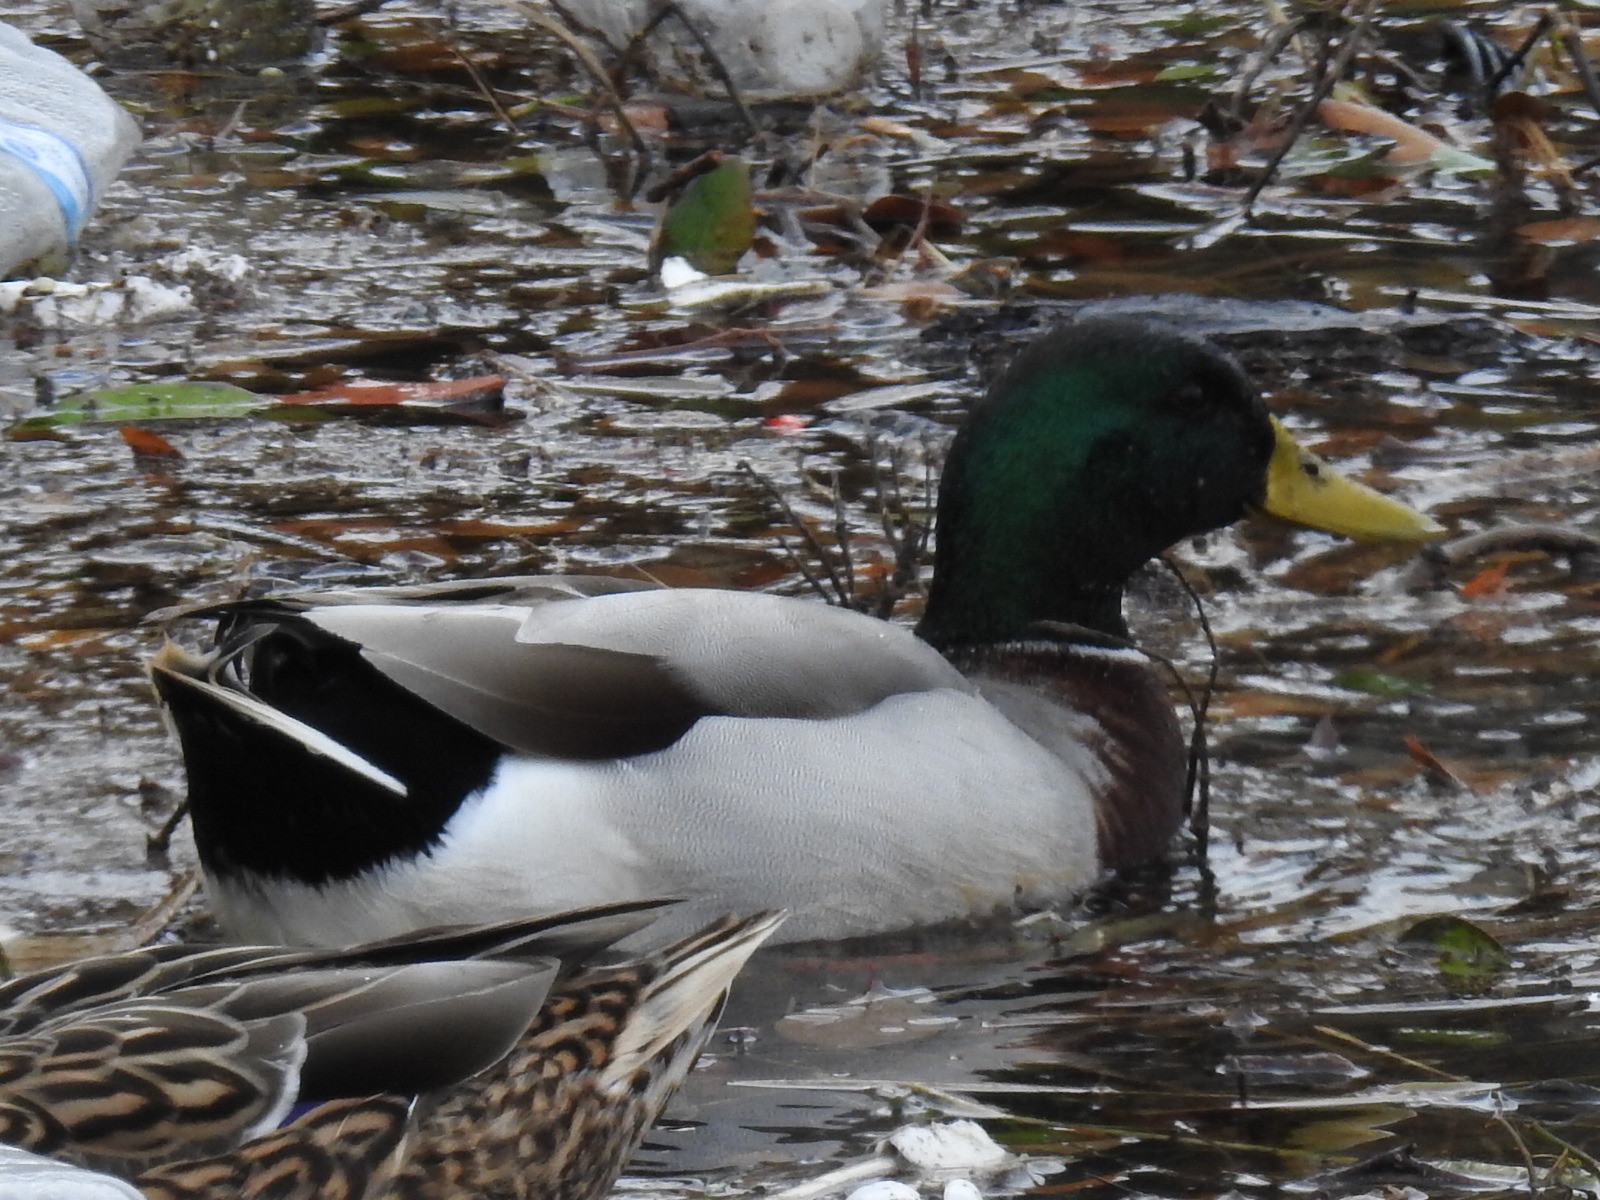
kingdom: Animalia
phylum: Chordata
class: Aves
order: Anseriformes
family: Anatidae
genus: Anas
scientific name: Anas platyrhynchos
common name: Mallard
